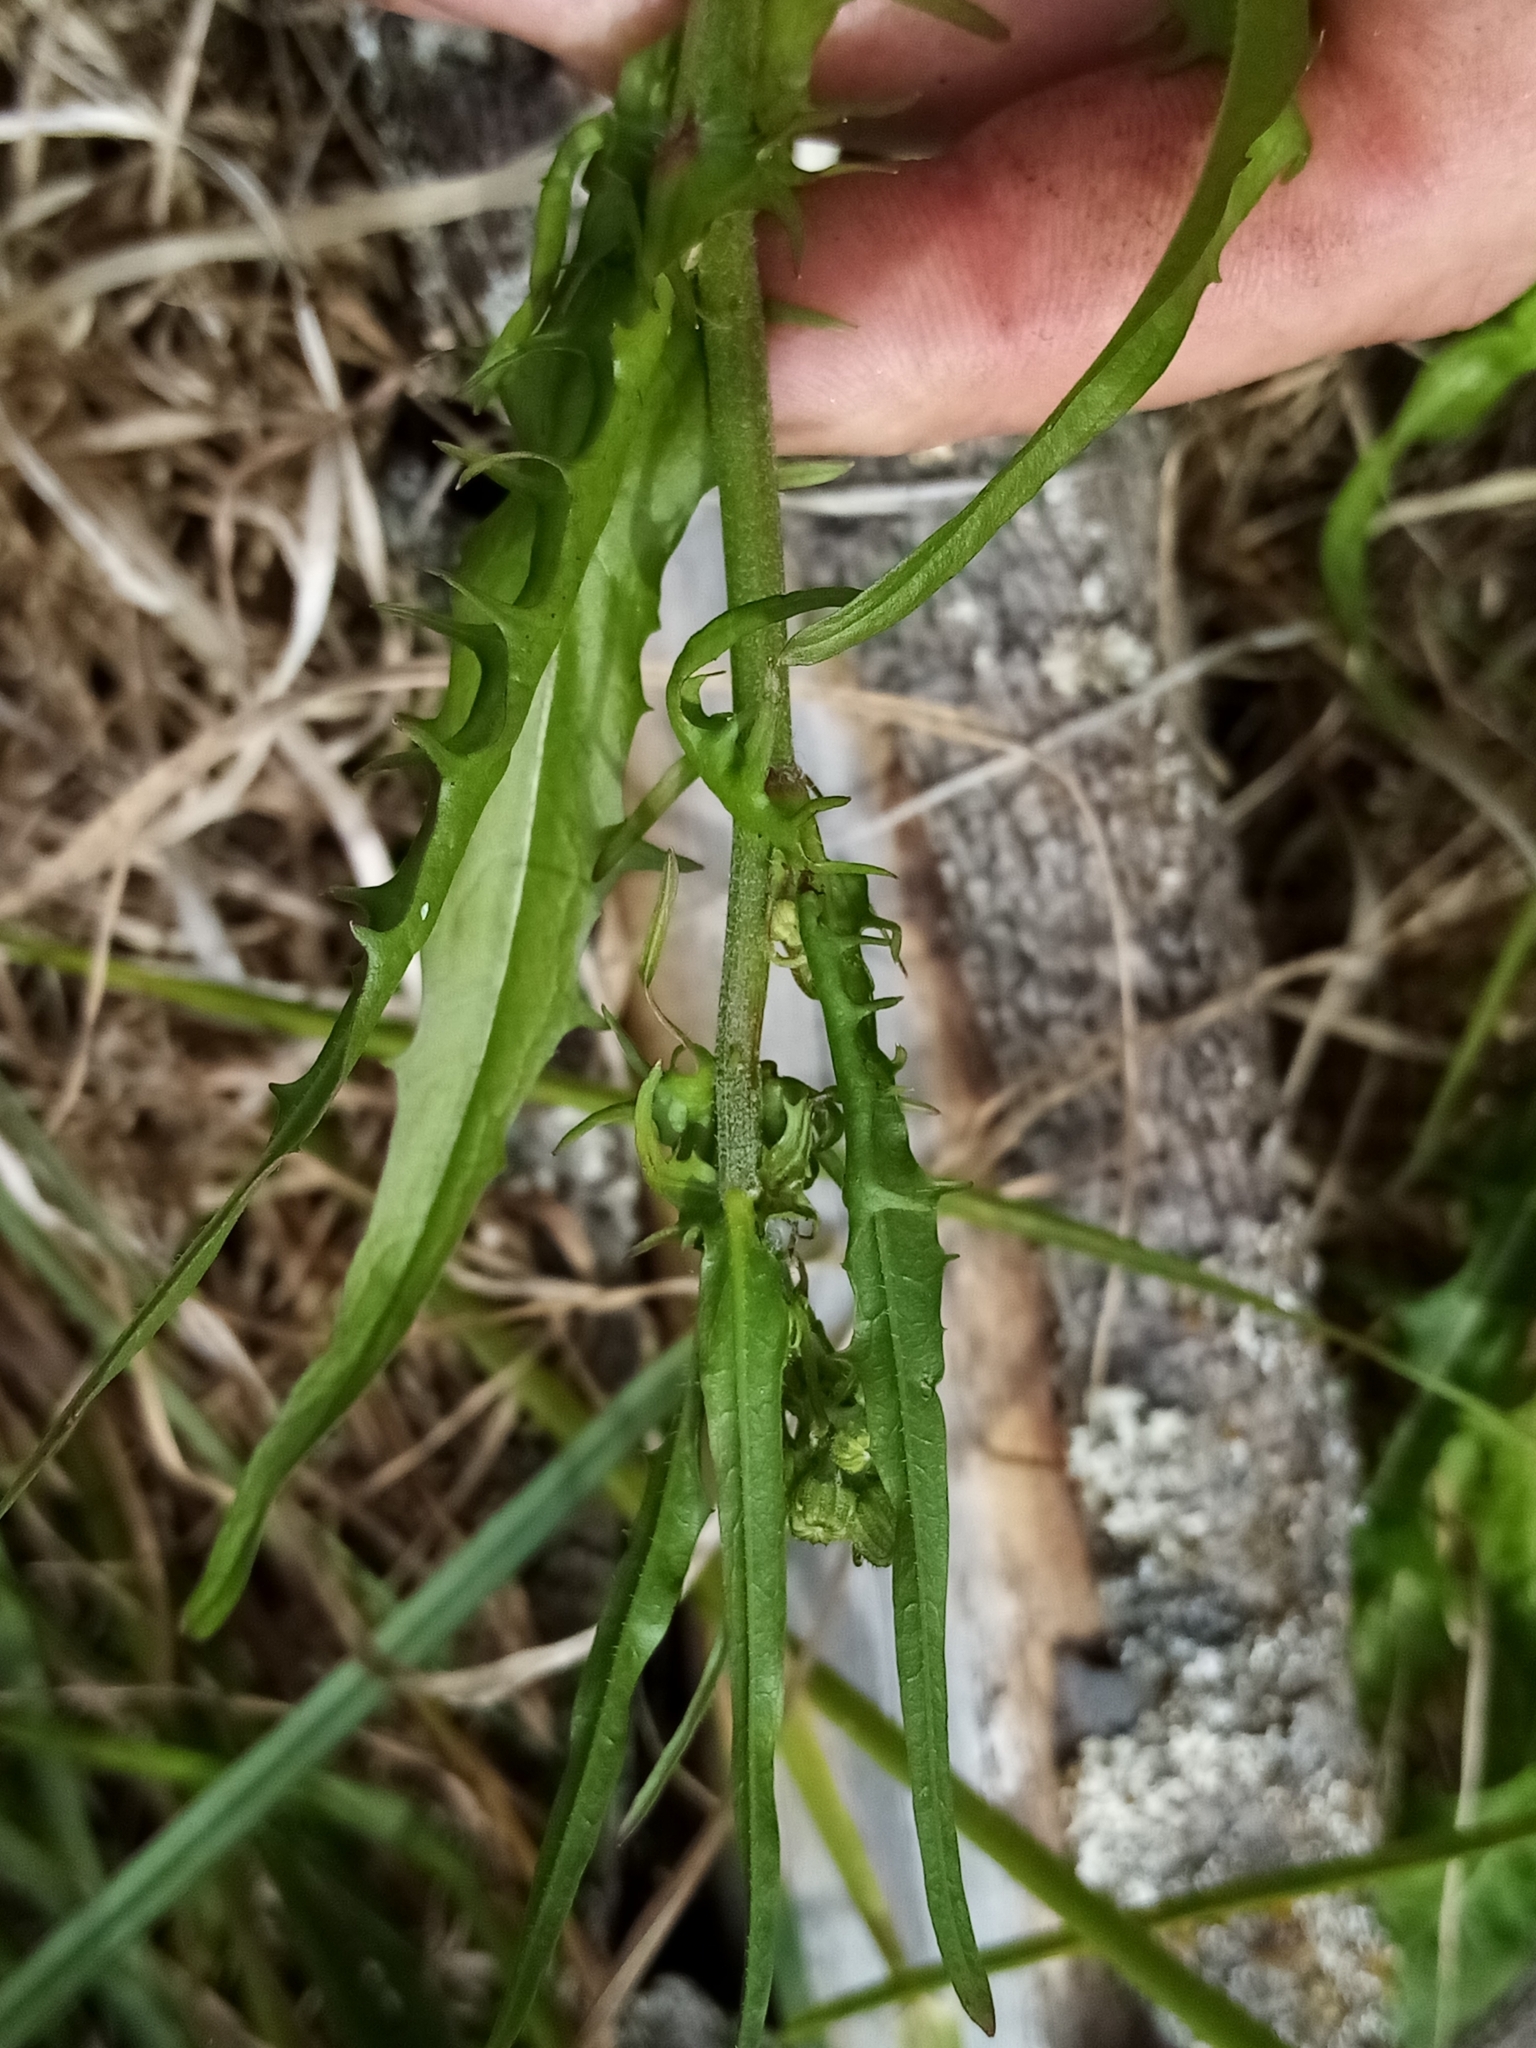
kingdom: Plantae
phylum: Tracheophyta
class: Magnoliopsida
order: Asterales
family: Asteraceae
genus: Crepis
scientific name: Crepis capillaris
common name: Smooth hawksbeard
